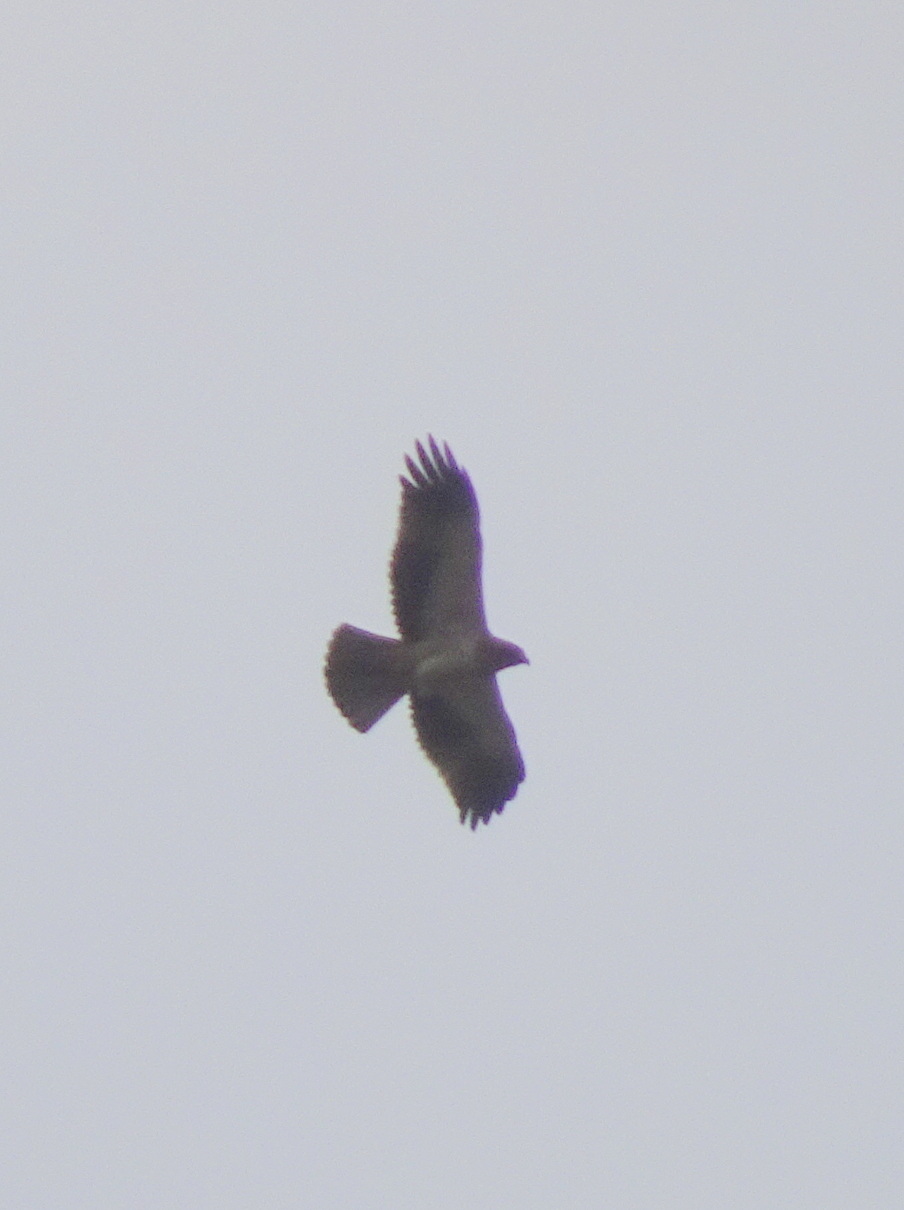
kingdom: Animalia
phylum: Chordata
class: Aves
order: Accipitriformes
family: Accipitridae
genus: Hieraaetus
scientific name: Hieraaetus pennatus
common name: Booted eagle
